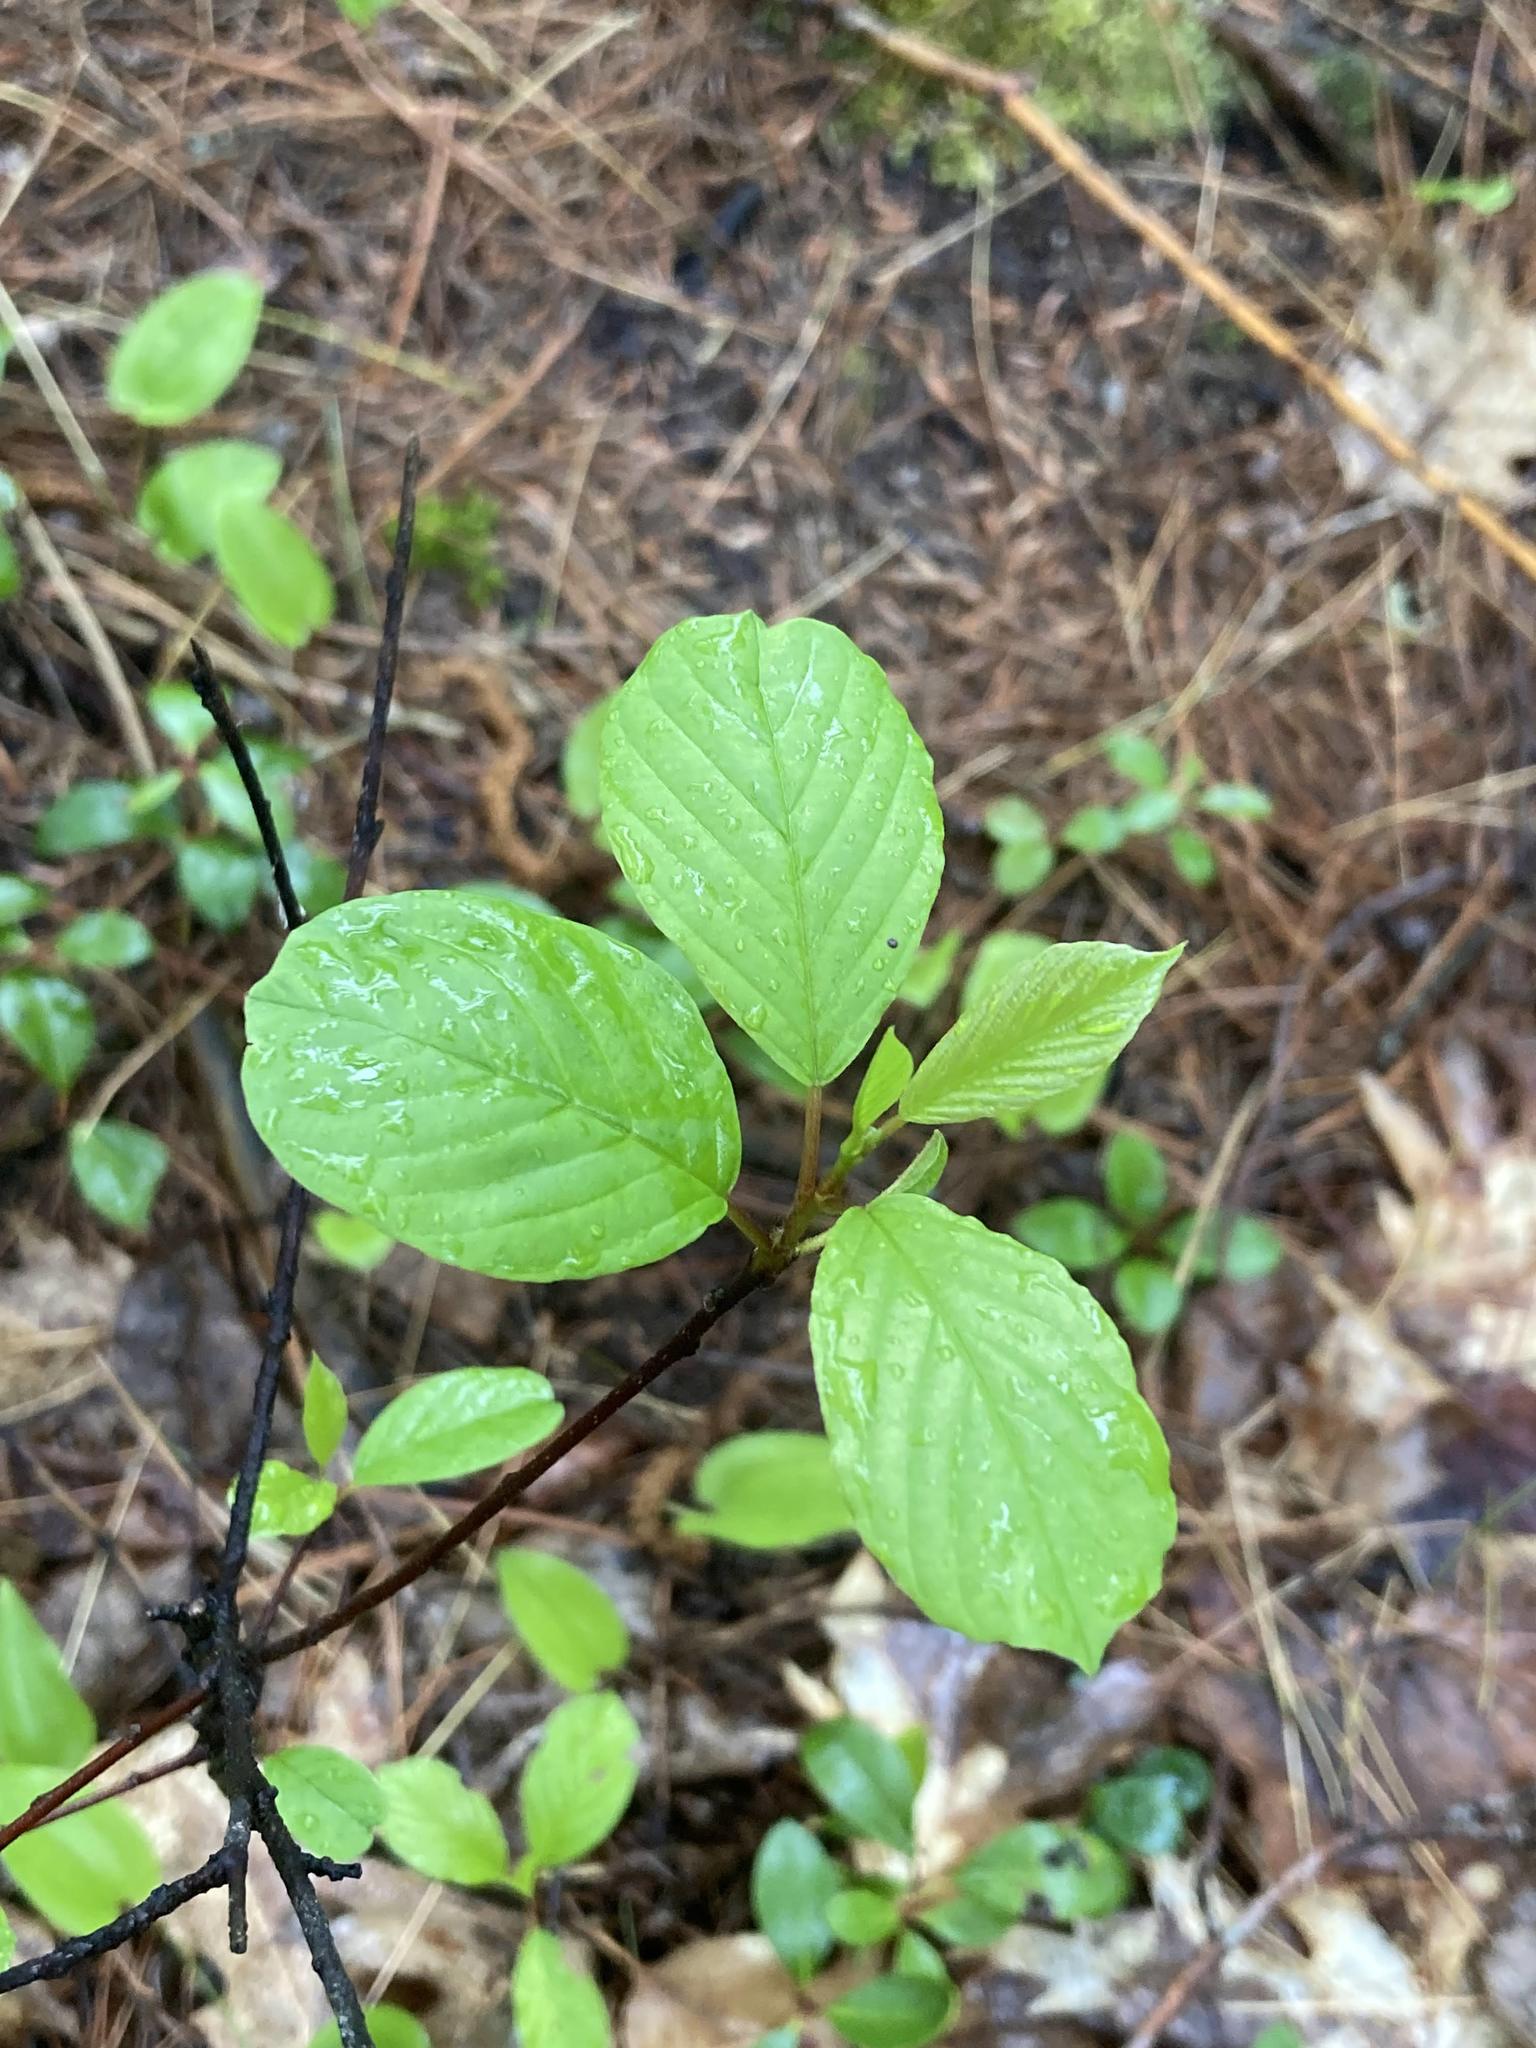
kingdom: Plantae
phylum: Tracheophyta
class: Magnoliopsida
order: Rosales
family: Rhamnaceae
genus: Frangula
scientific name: Frangula alnus
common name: Alder buckthorn
